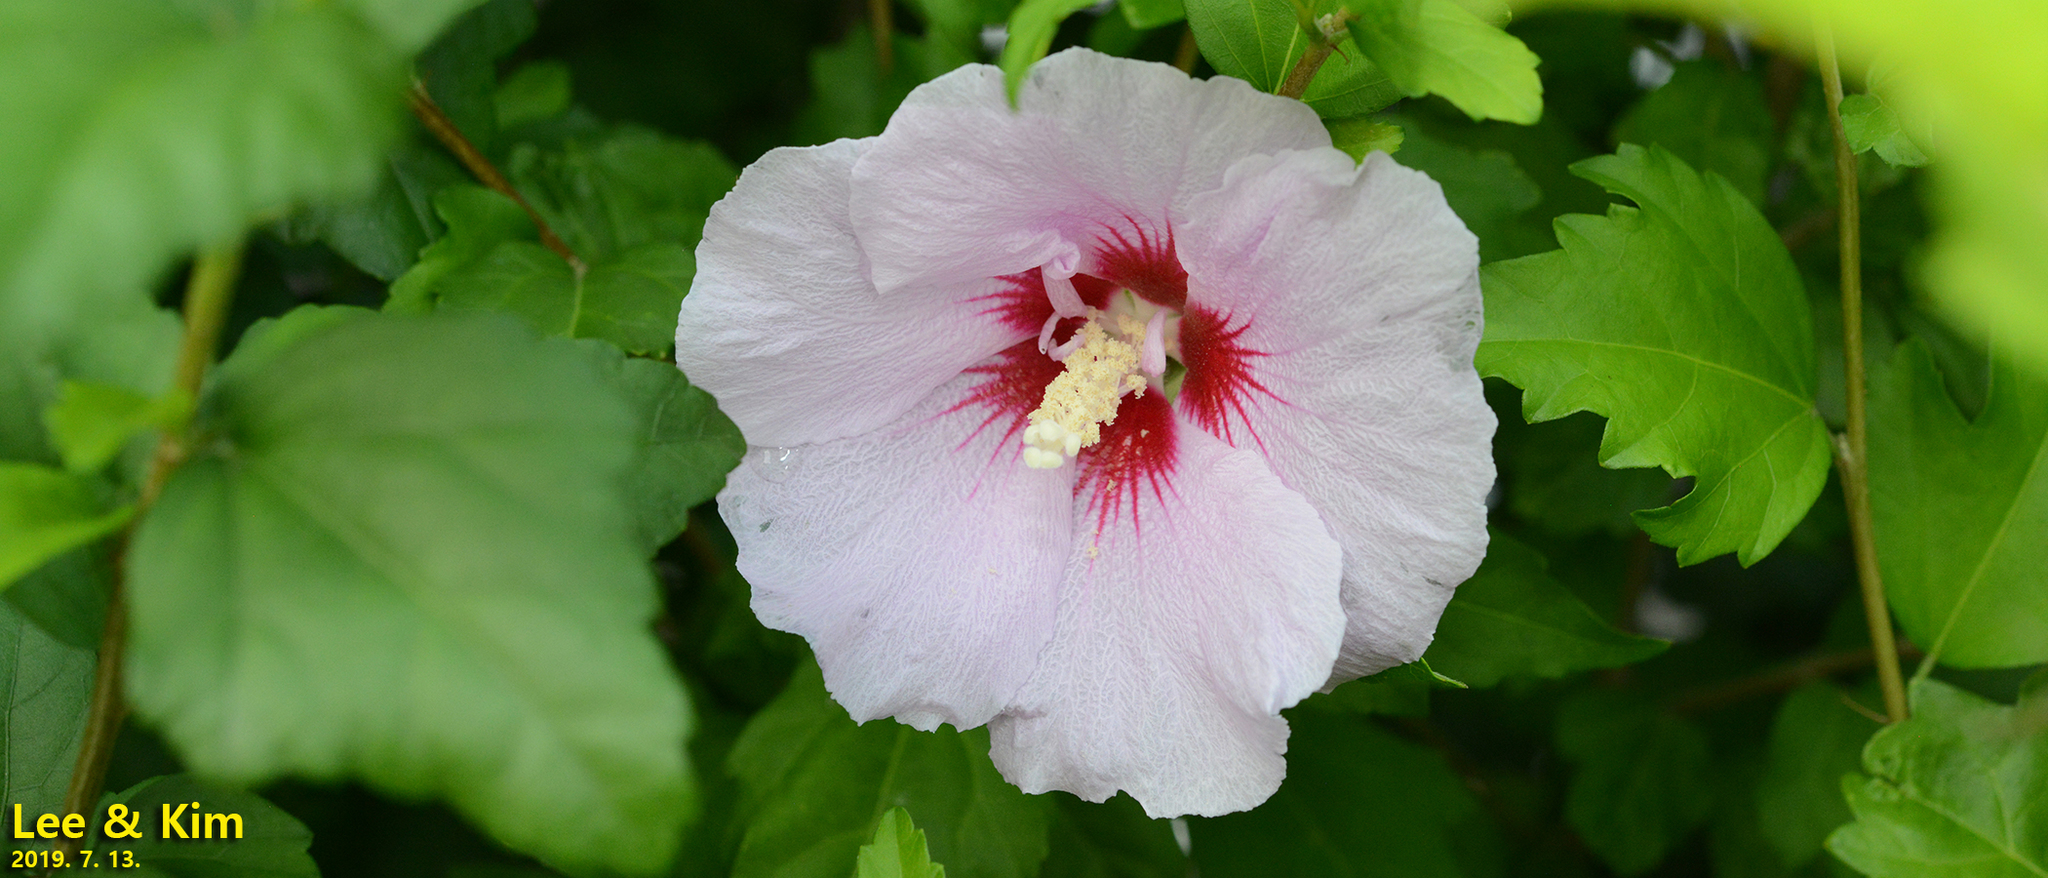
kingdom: Plantae
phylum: Tracheophyta
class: Magnoliopsida
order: Malvales
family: Malvaceae
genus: Hibiscus
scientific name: Hibiscus syriacus
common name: Syrian ketmia
